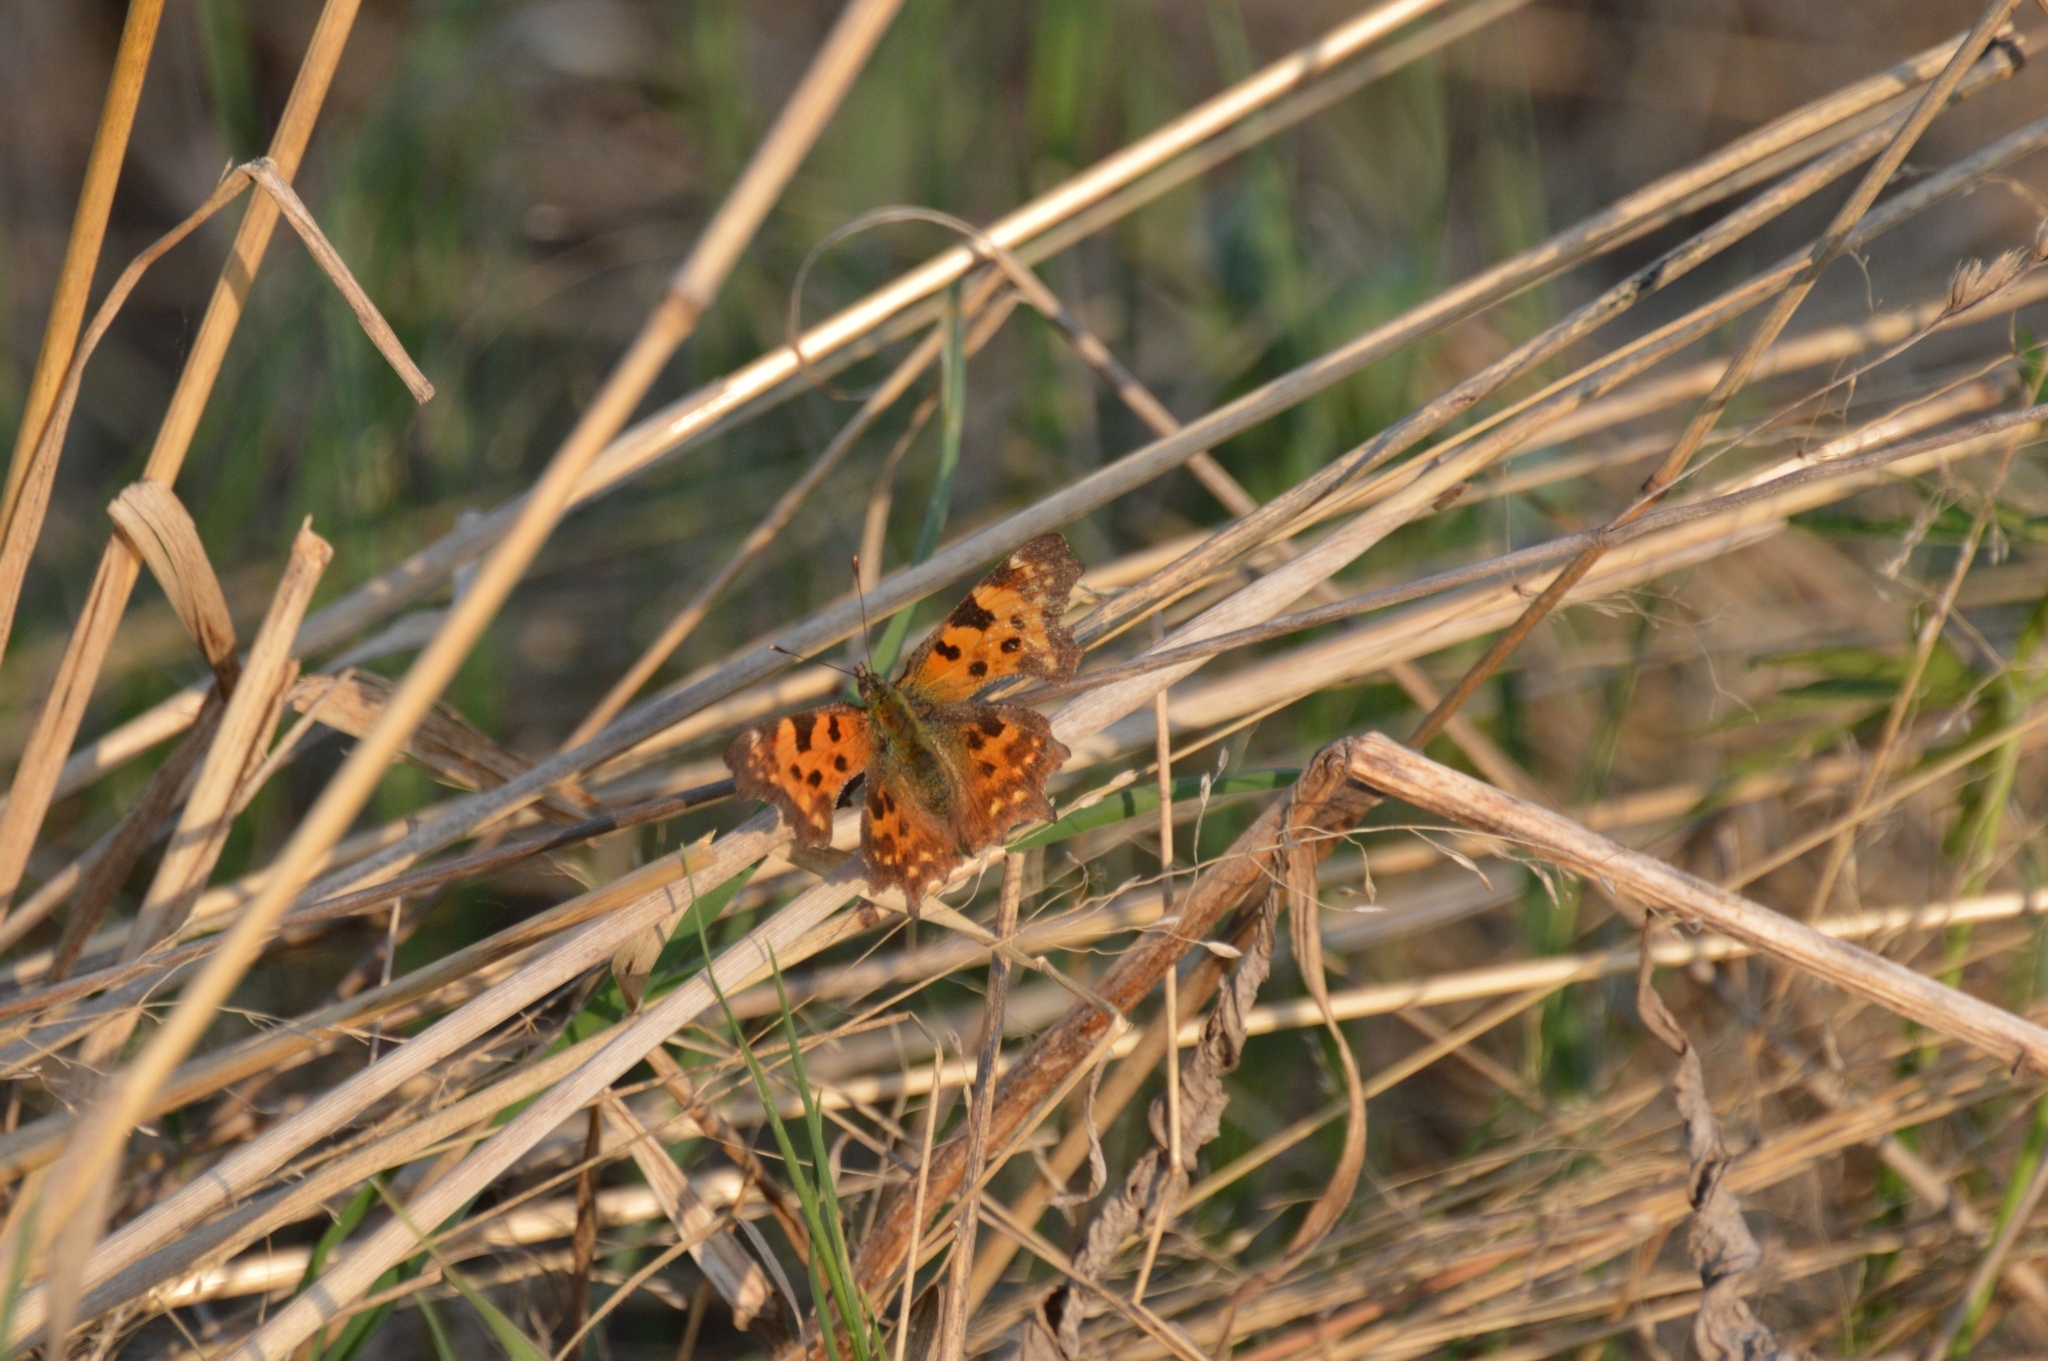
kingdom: Animalia
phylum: Arthropoda
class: Insecta
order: Lepidoptera
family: Nymphalidae
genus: Polygonia
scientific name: Polygonia c-album
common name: Comma
